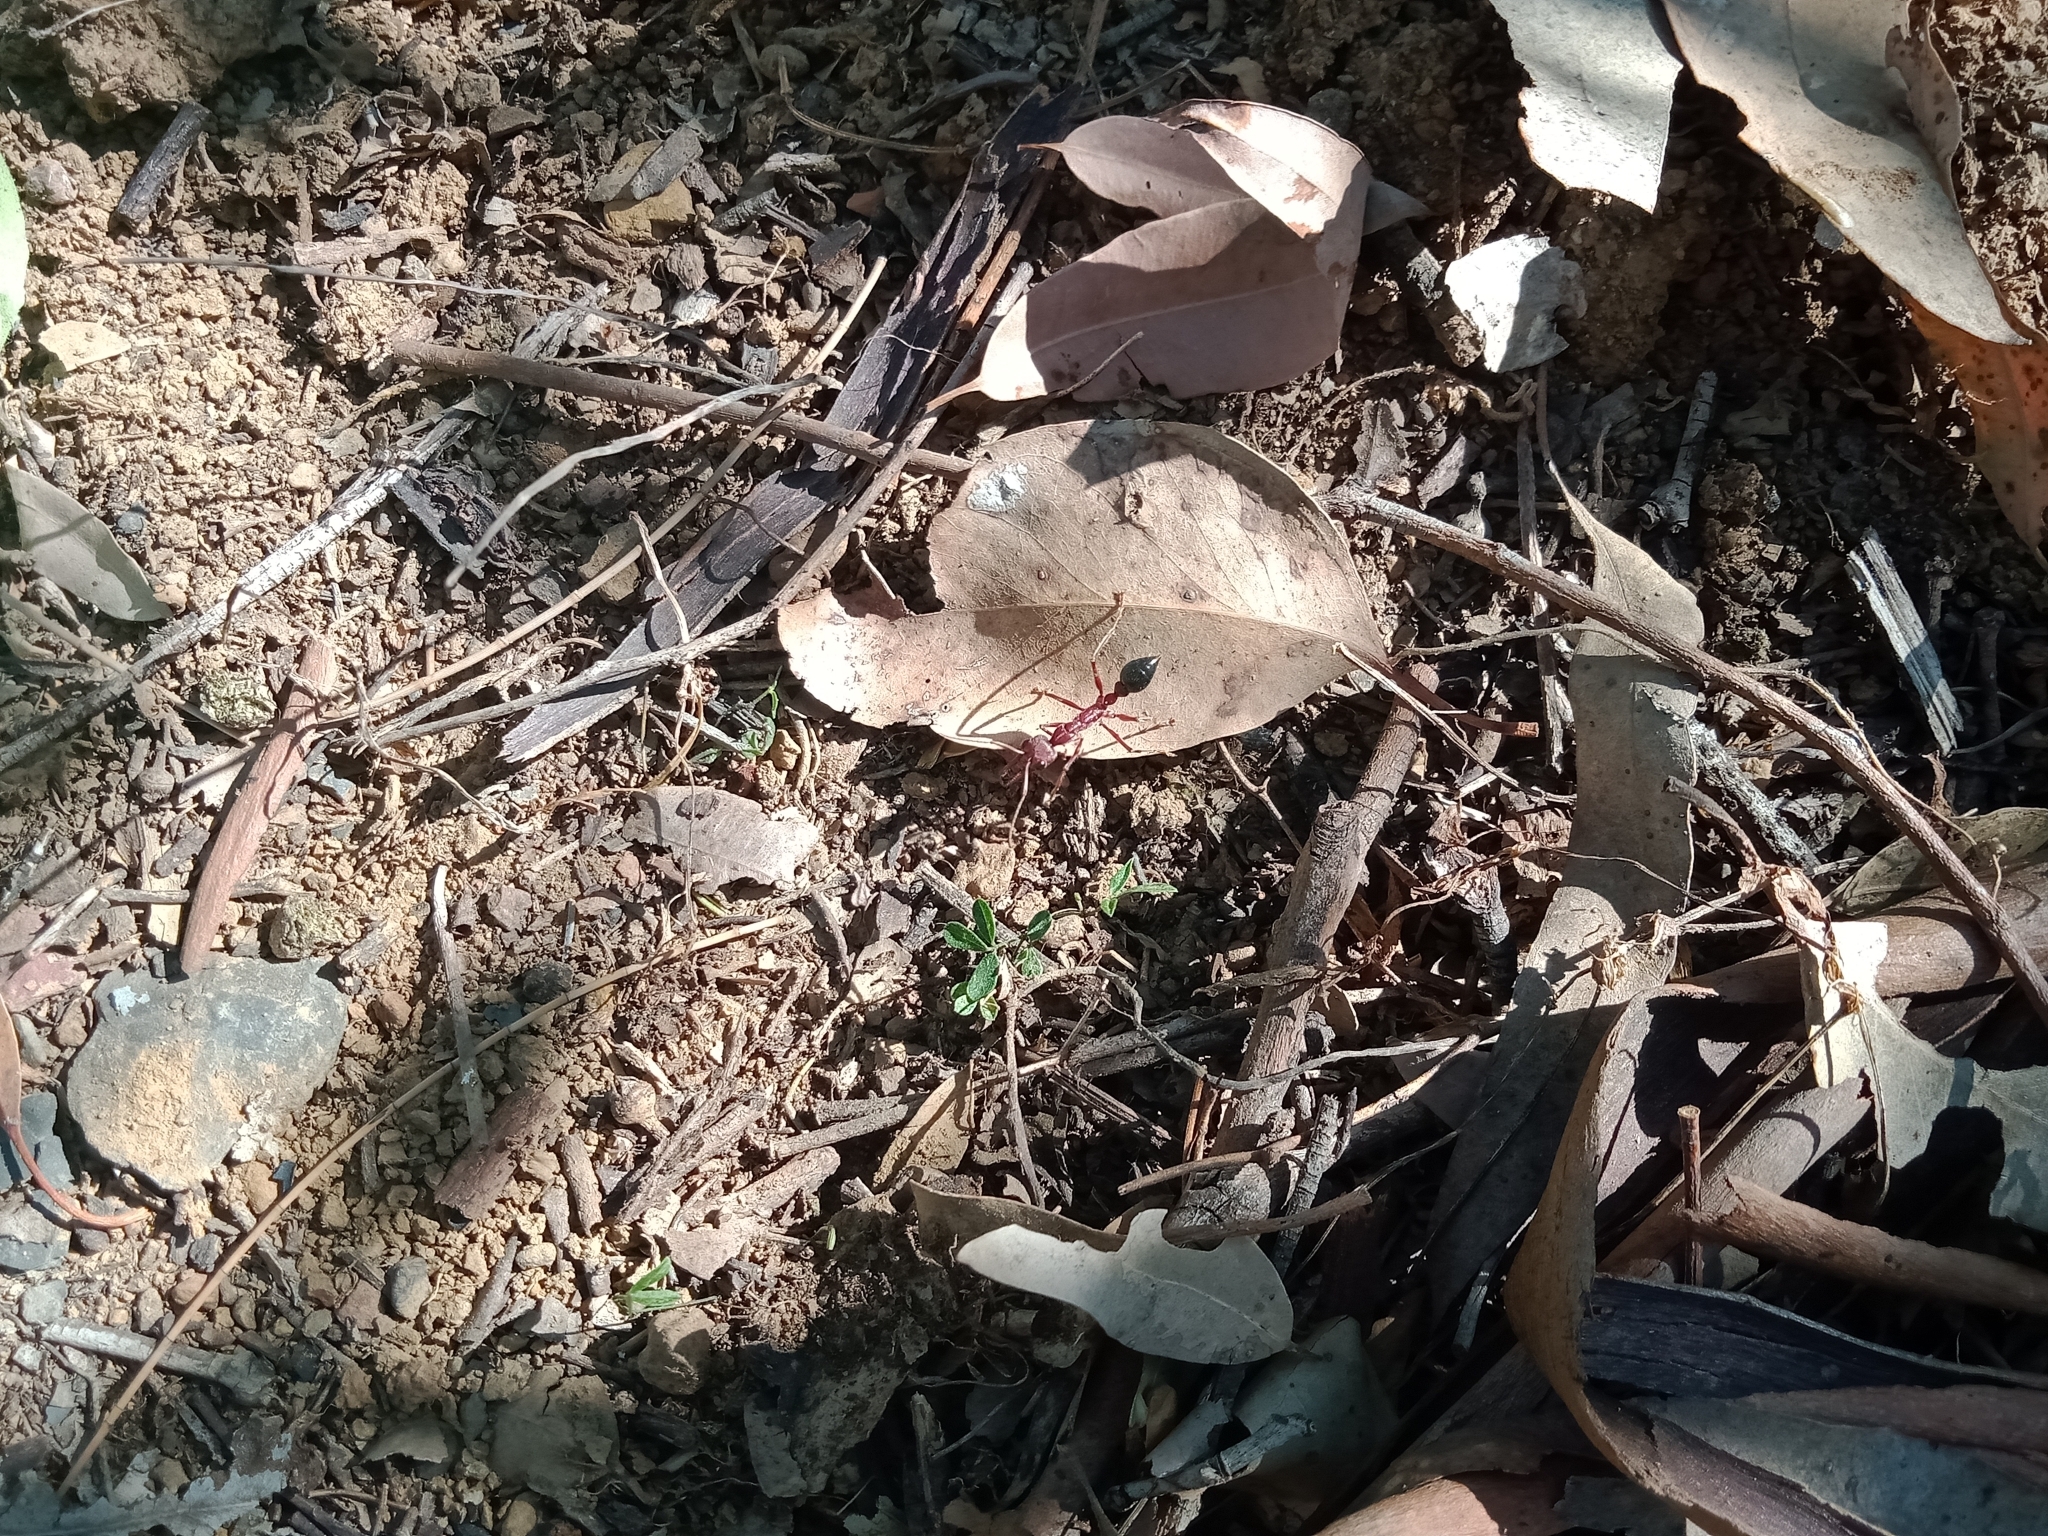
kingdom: Animalia
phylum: Arthropoda
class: Insecta
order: Hymenoptera
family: Formicidae
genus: Myrmecia
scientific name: Myrmecia brevinoda
